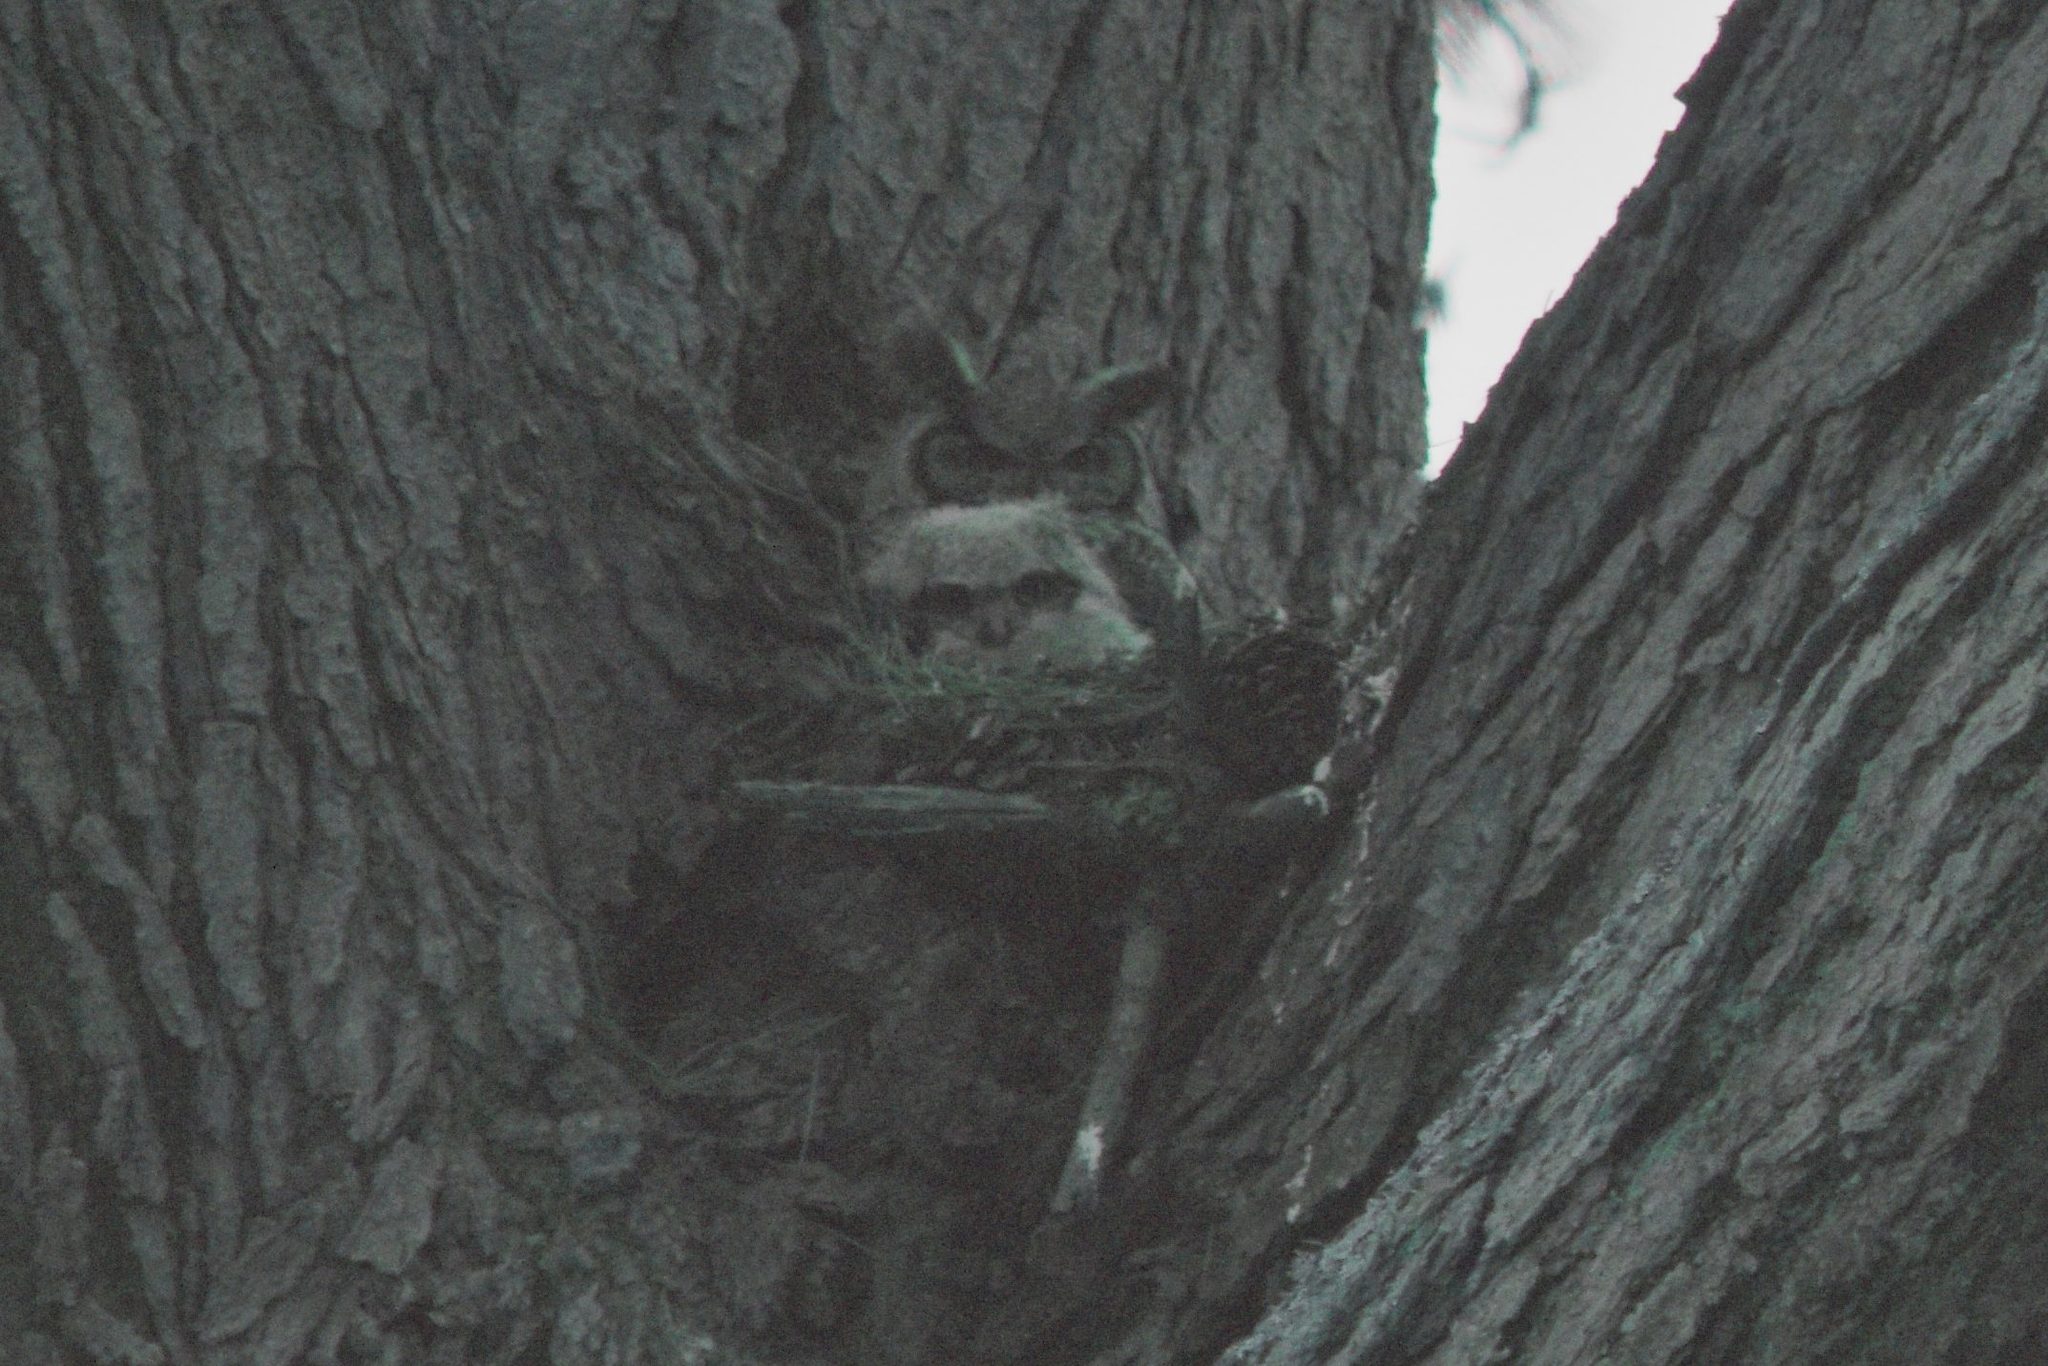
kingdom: Animalia
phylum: Chordata
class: Aves
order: Strigiformes
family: Strigidae
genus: Bubo
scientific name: Bubo virginianus
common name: Great horned owl
